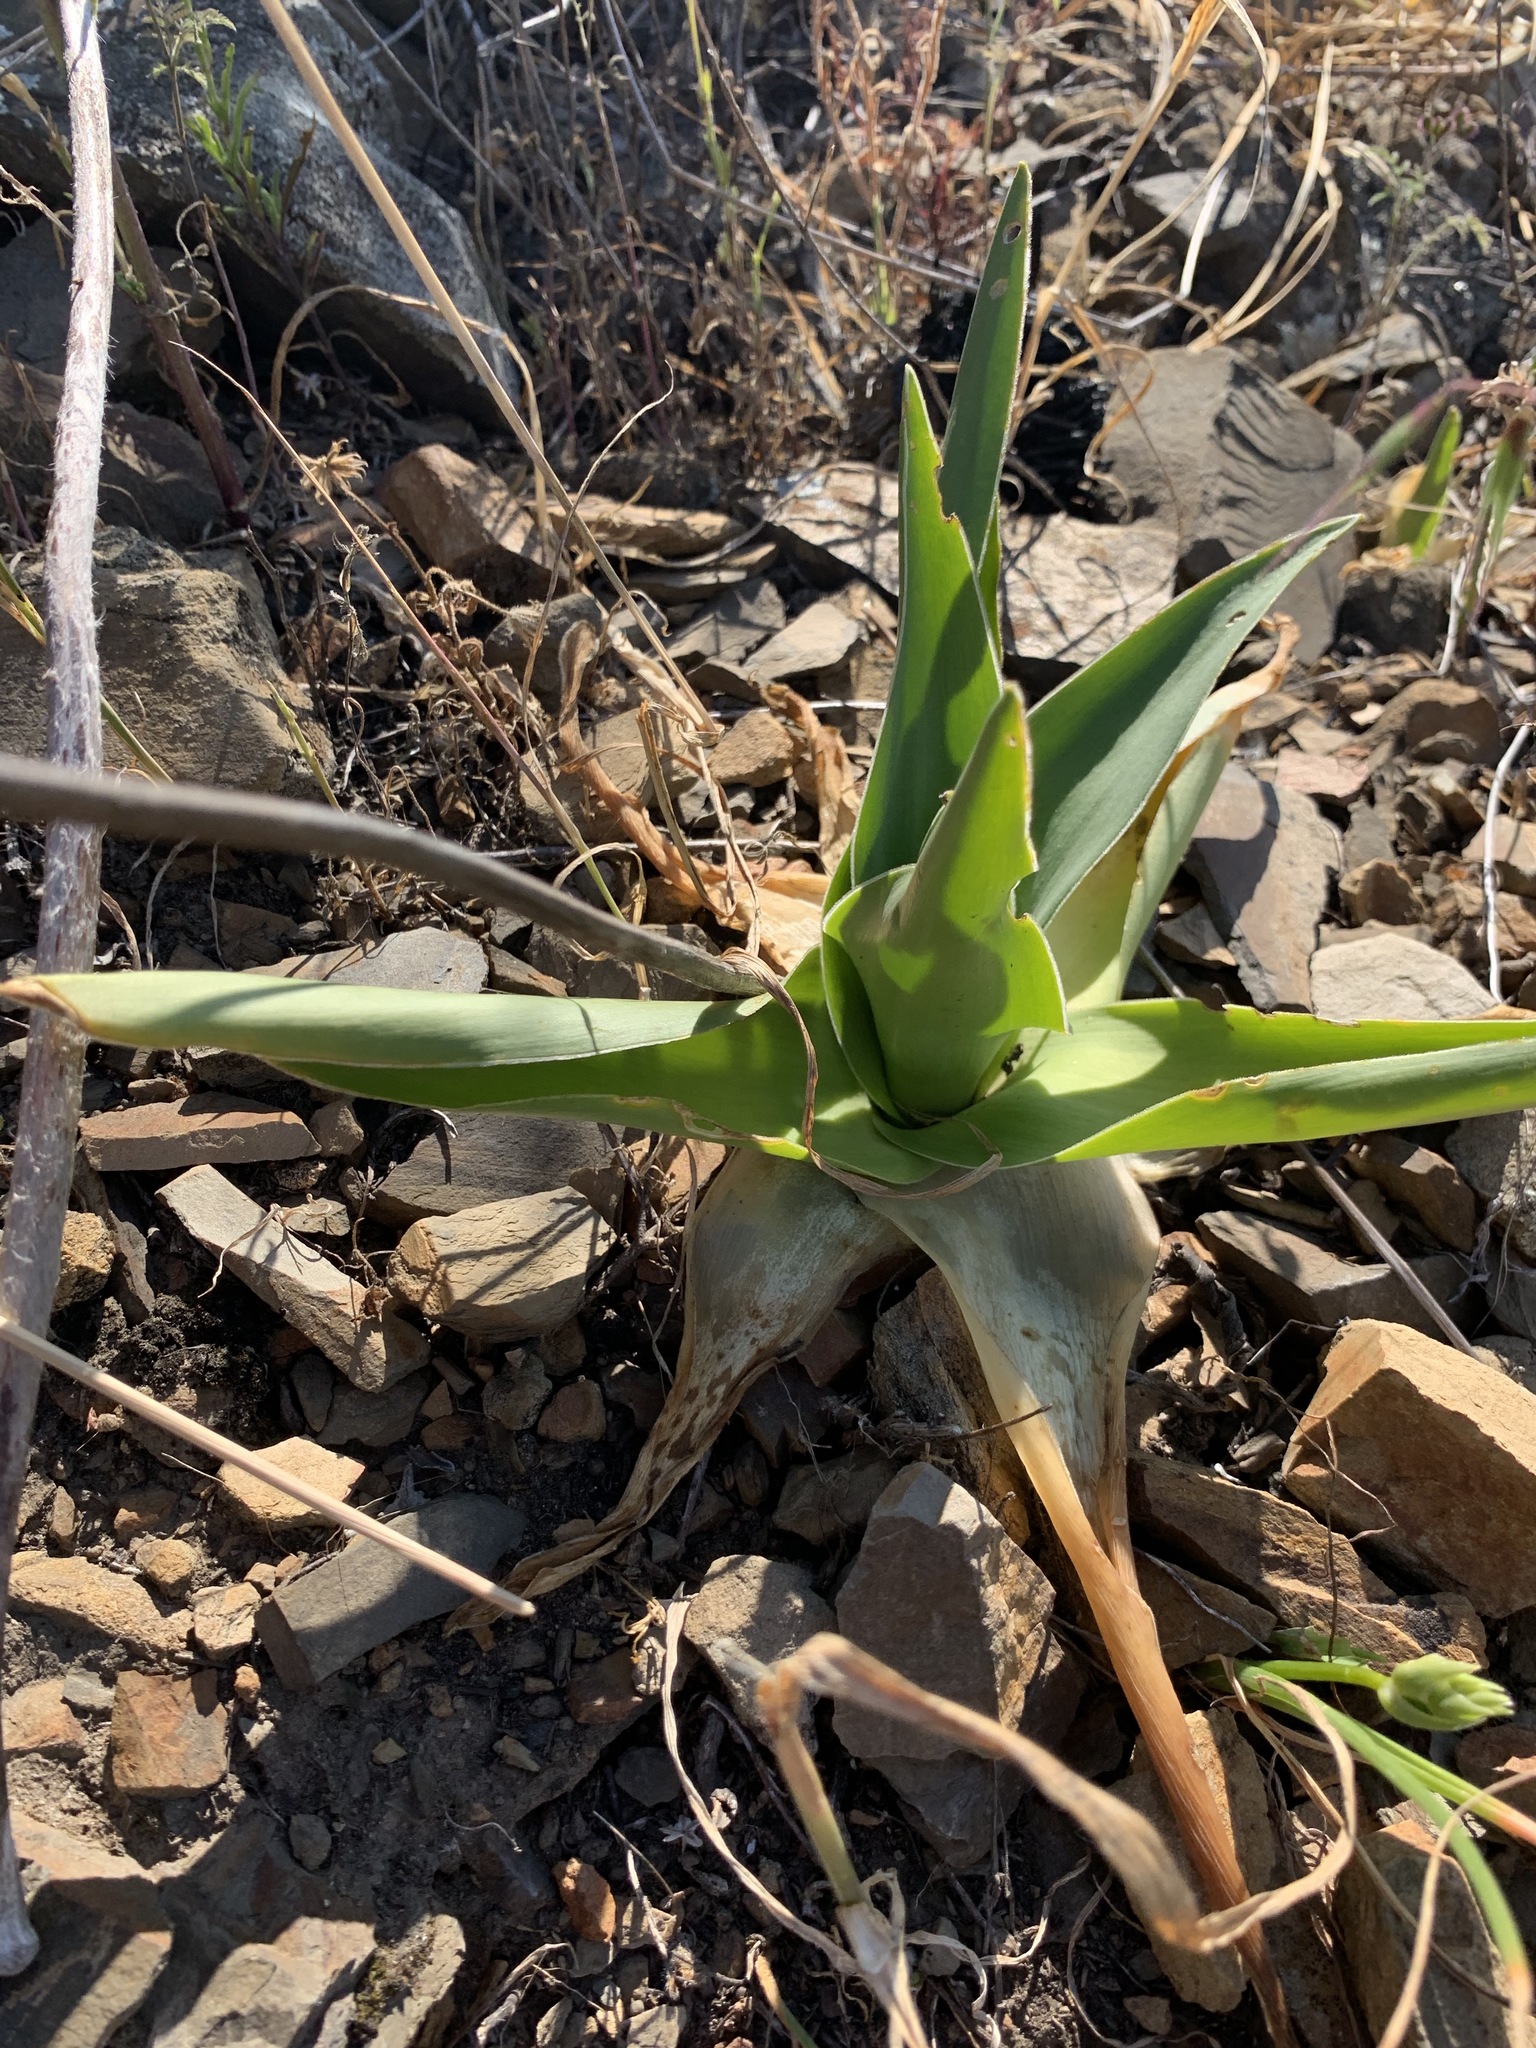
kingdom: Plantae
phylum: Tracheophyta
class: Liliopsida
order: Asparagales
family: Asparagaceae
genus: Drimia
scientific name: Drimia capensis
